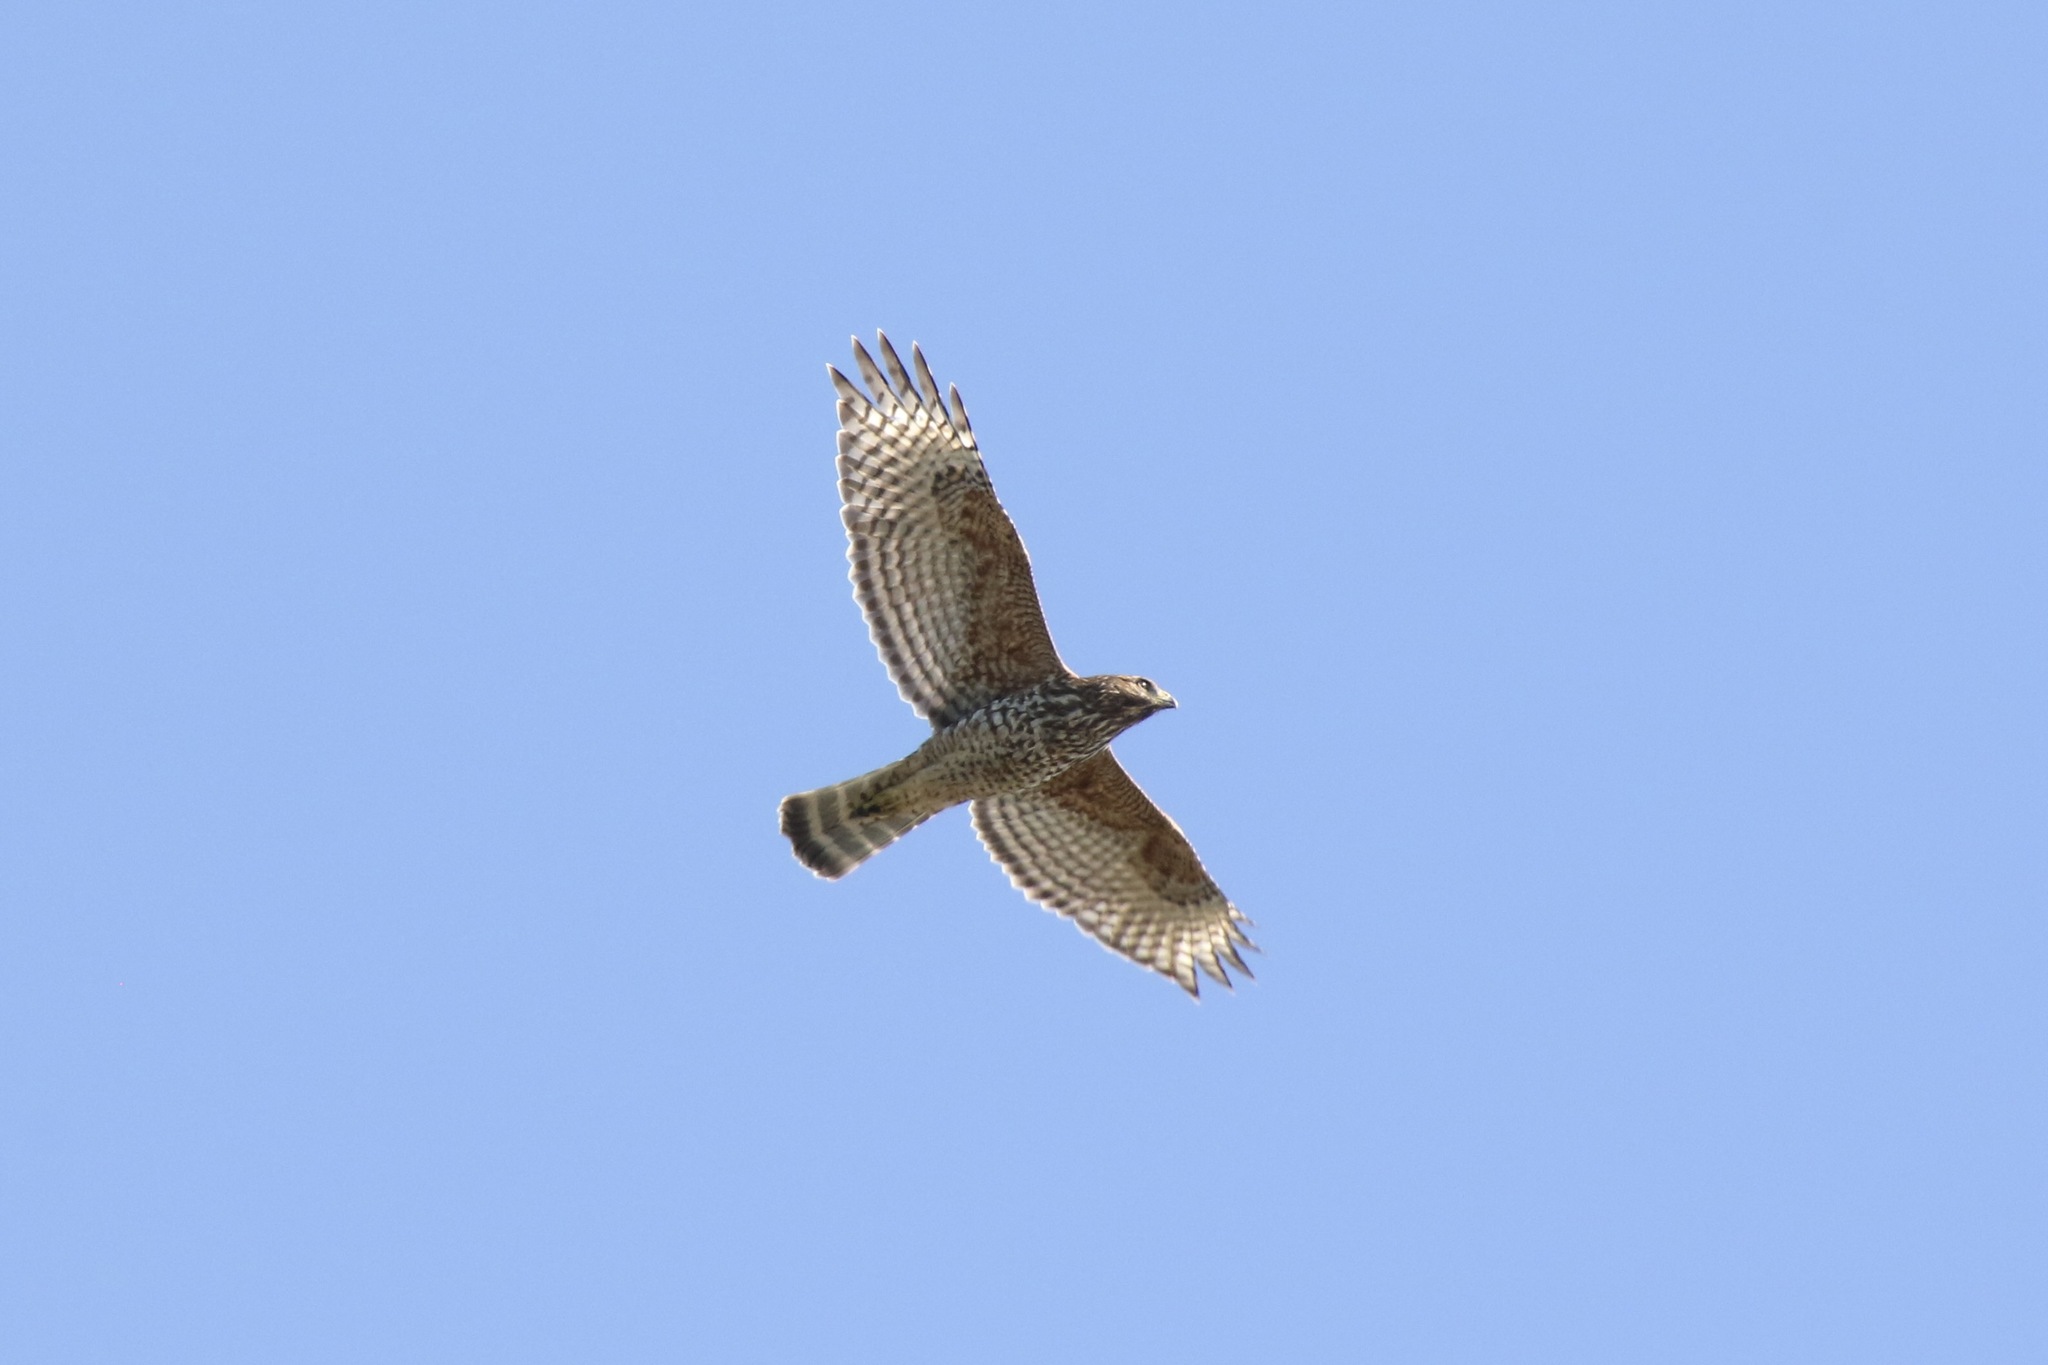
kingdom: Animalia
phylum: Chordata
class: Aves
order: Accipitriformes
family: Accipitridae
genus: Buteo
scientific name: Buteo lineatus
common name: Red-shouldered hawk
